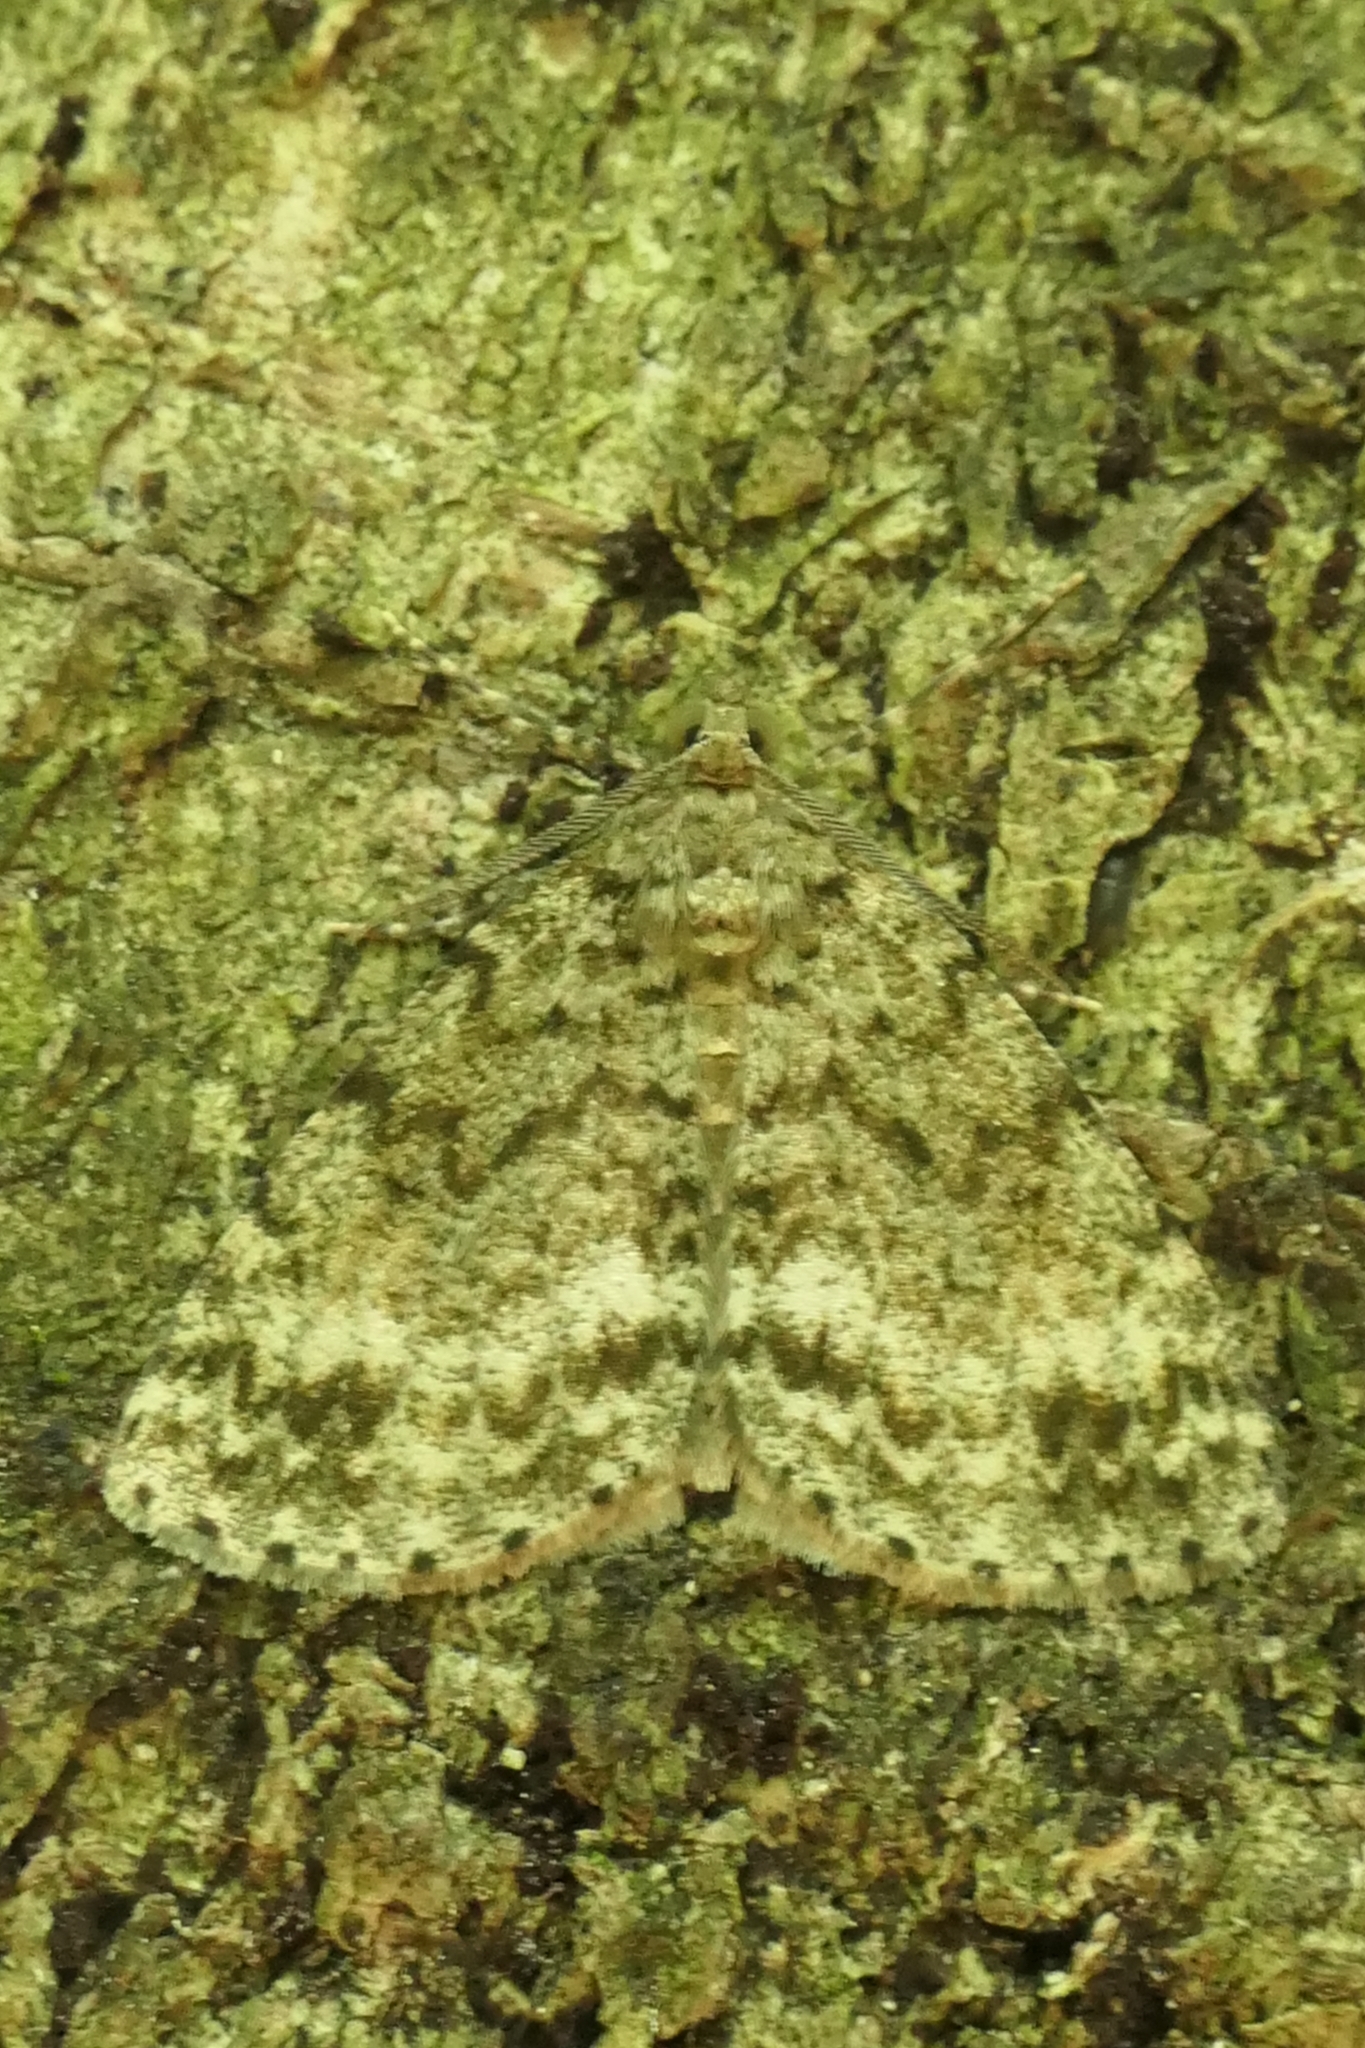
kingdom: Animalia
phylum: Arthropoda
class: Insecta
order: Lepidoptera
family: Geometridae
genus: Pseudocoremia
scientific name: Pseudocoremia indistincta
